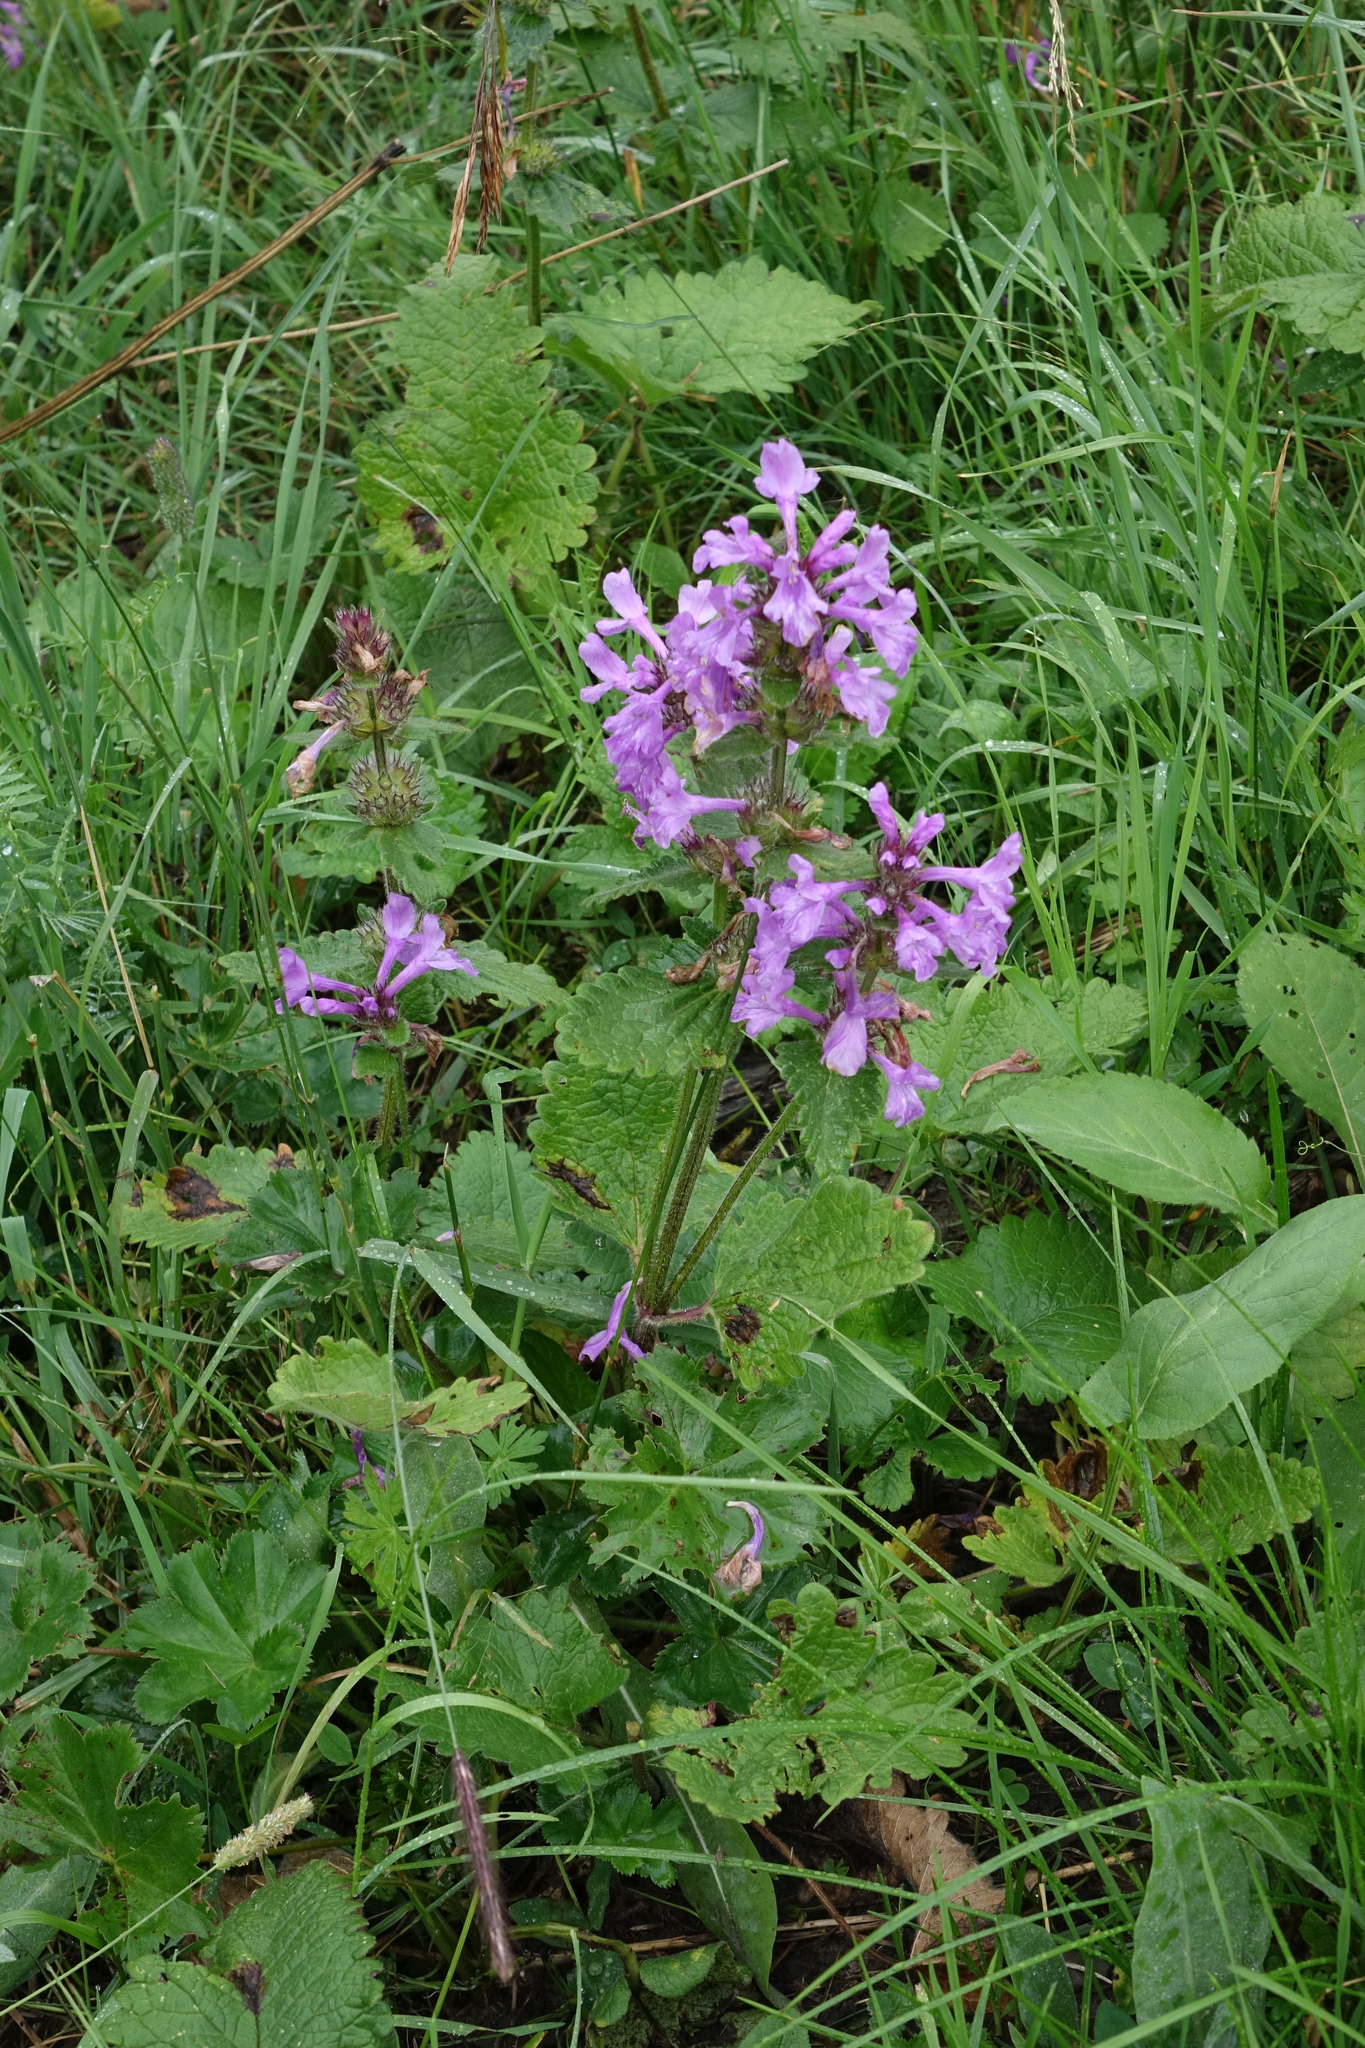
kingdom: Plantae
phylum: Tracheophyta
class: Magnoliopsida
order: Lamiales
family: Lamiaceae
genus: Betonica
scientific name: Betonica macrantha
